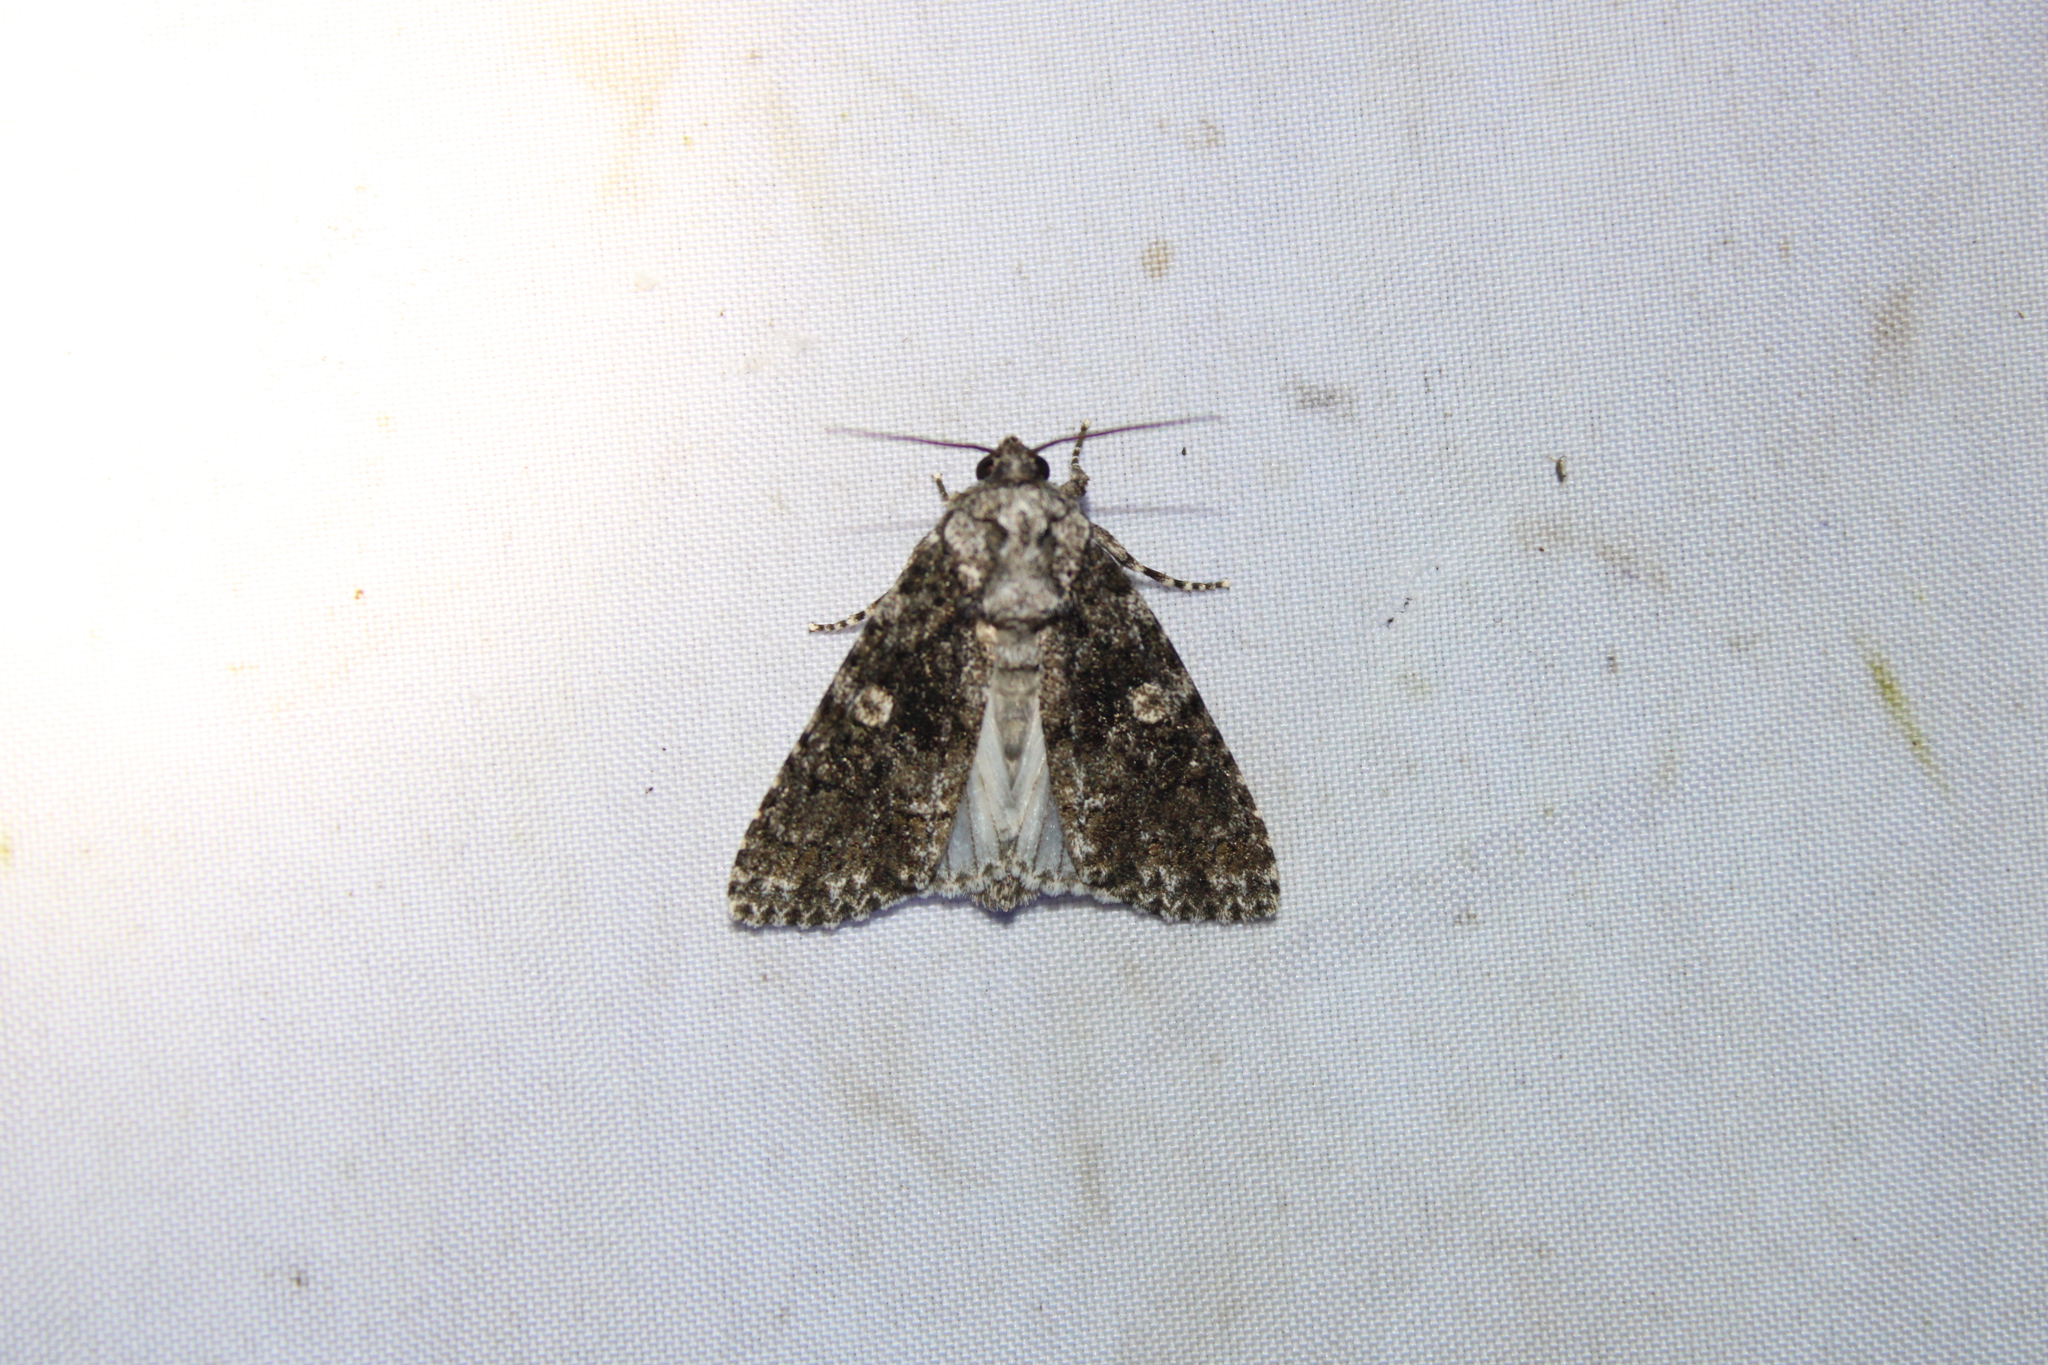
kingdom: Animalia
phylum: Arthropoda
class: Insecta
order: Lepidoptera
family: Noctuidae
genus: Acronicta
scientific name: Acronicta afflicta
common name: Afflicted dagger moth
